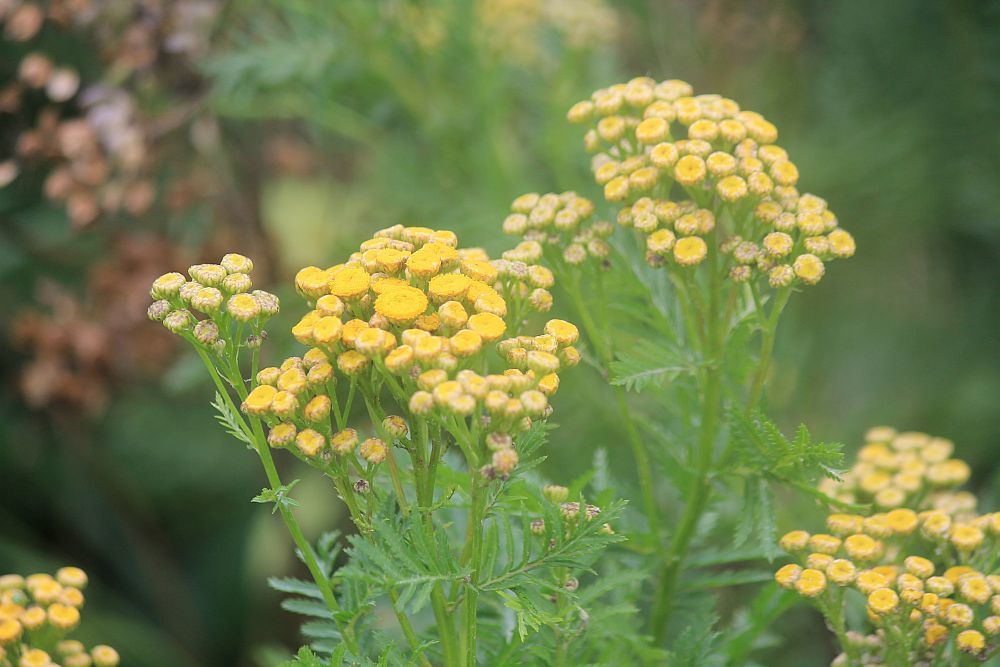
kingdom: Plantae
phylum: Tracheophyta
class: Magnoliopsida
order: Asterales
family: Asteraceae
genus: Tanacetum
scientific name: Tanacetum vulgare
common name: Common tansy
